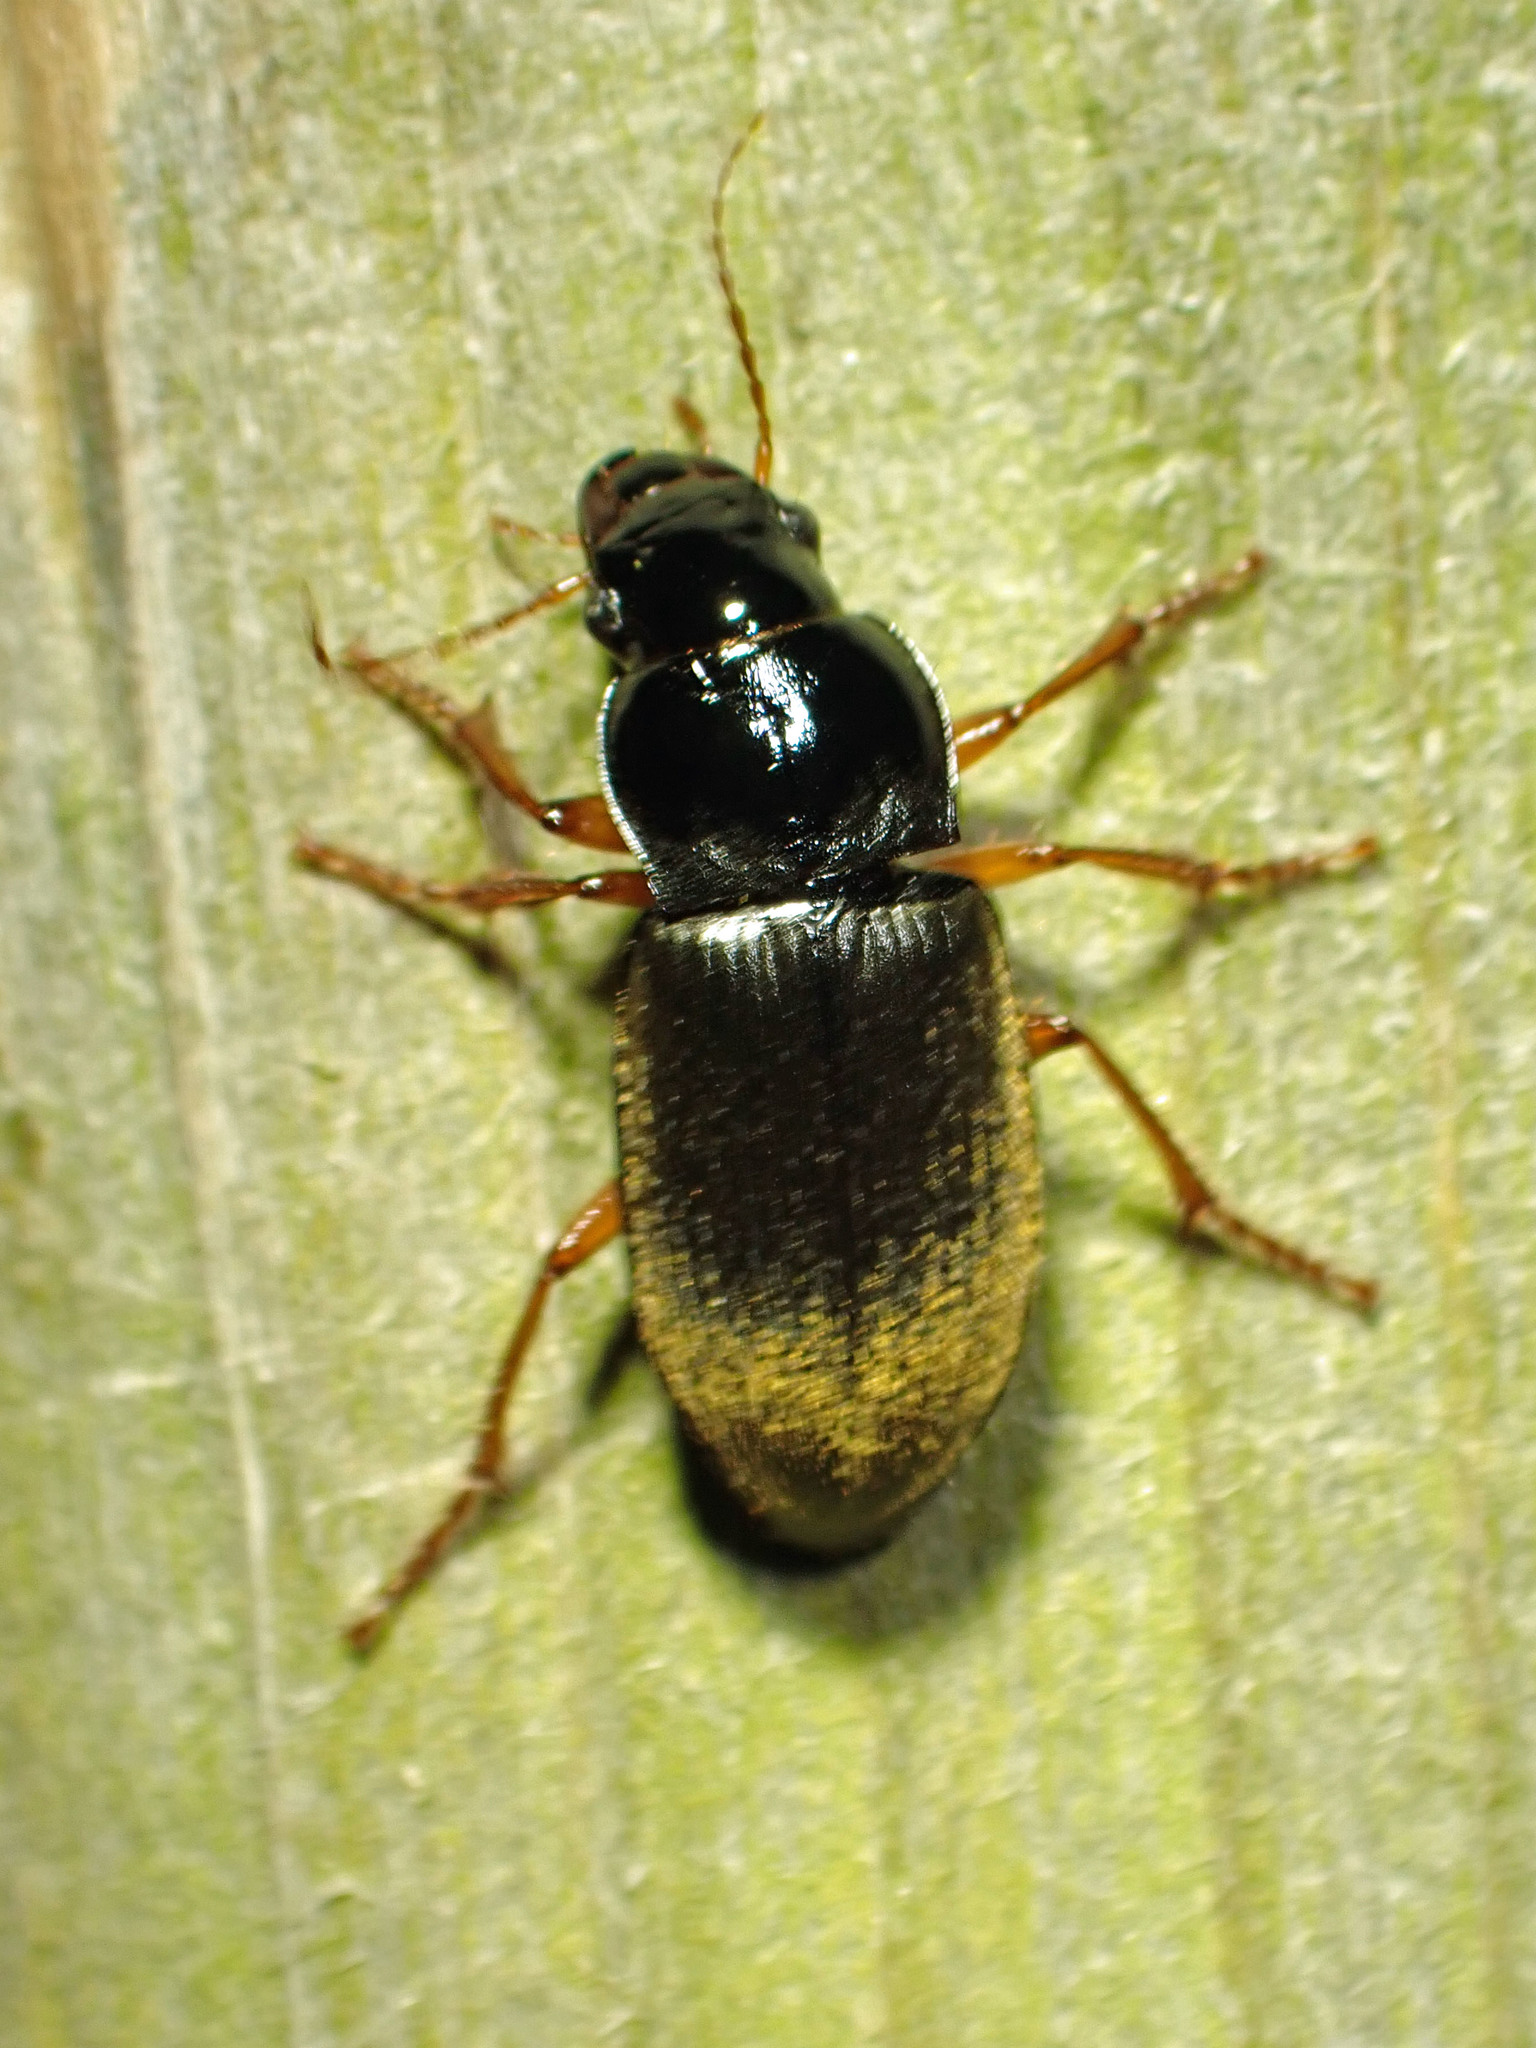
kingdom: Animalia
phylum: Arthropoda
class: Insecta
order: Coleoptera
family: Carabidae
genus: Harpalus
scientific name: Harpalus rufipes
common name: Strawberry harp ground beetle
